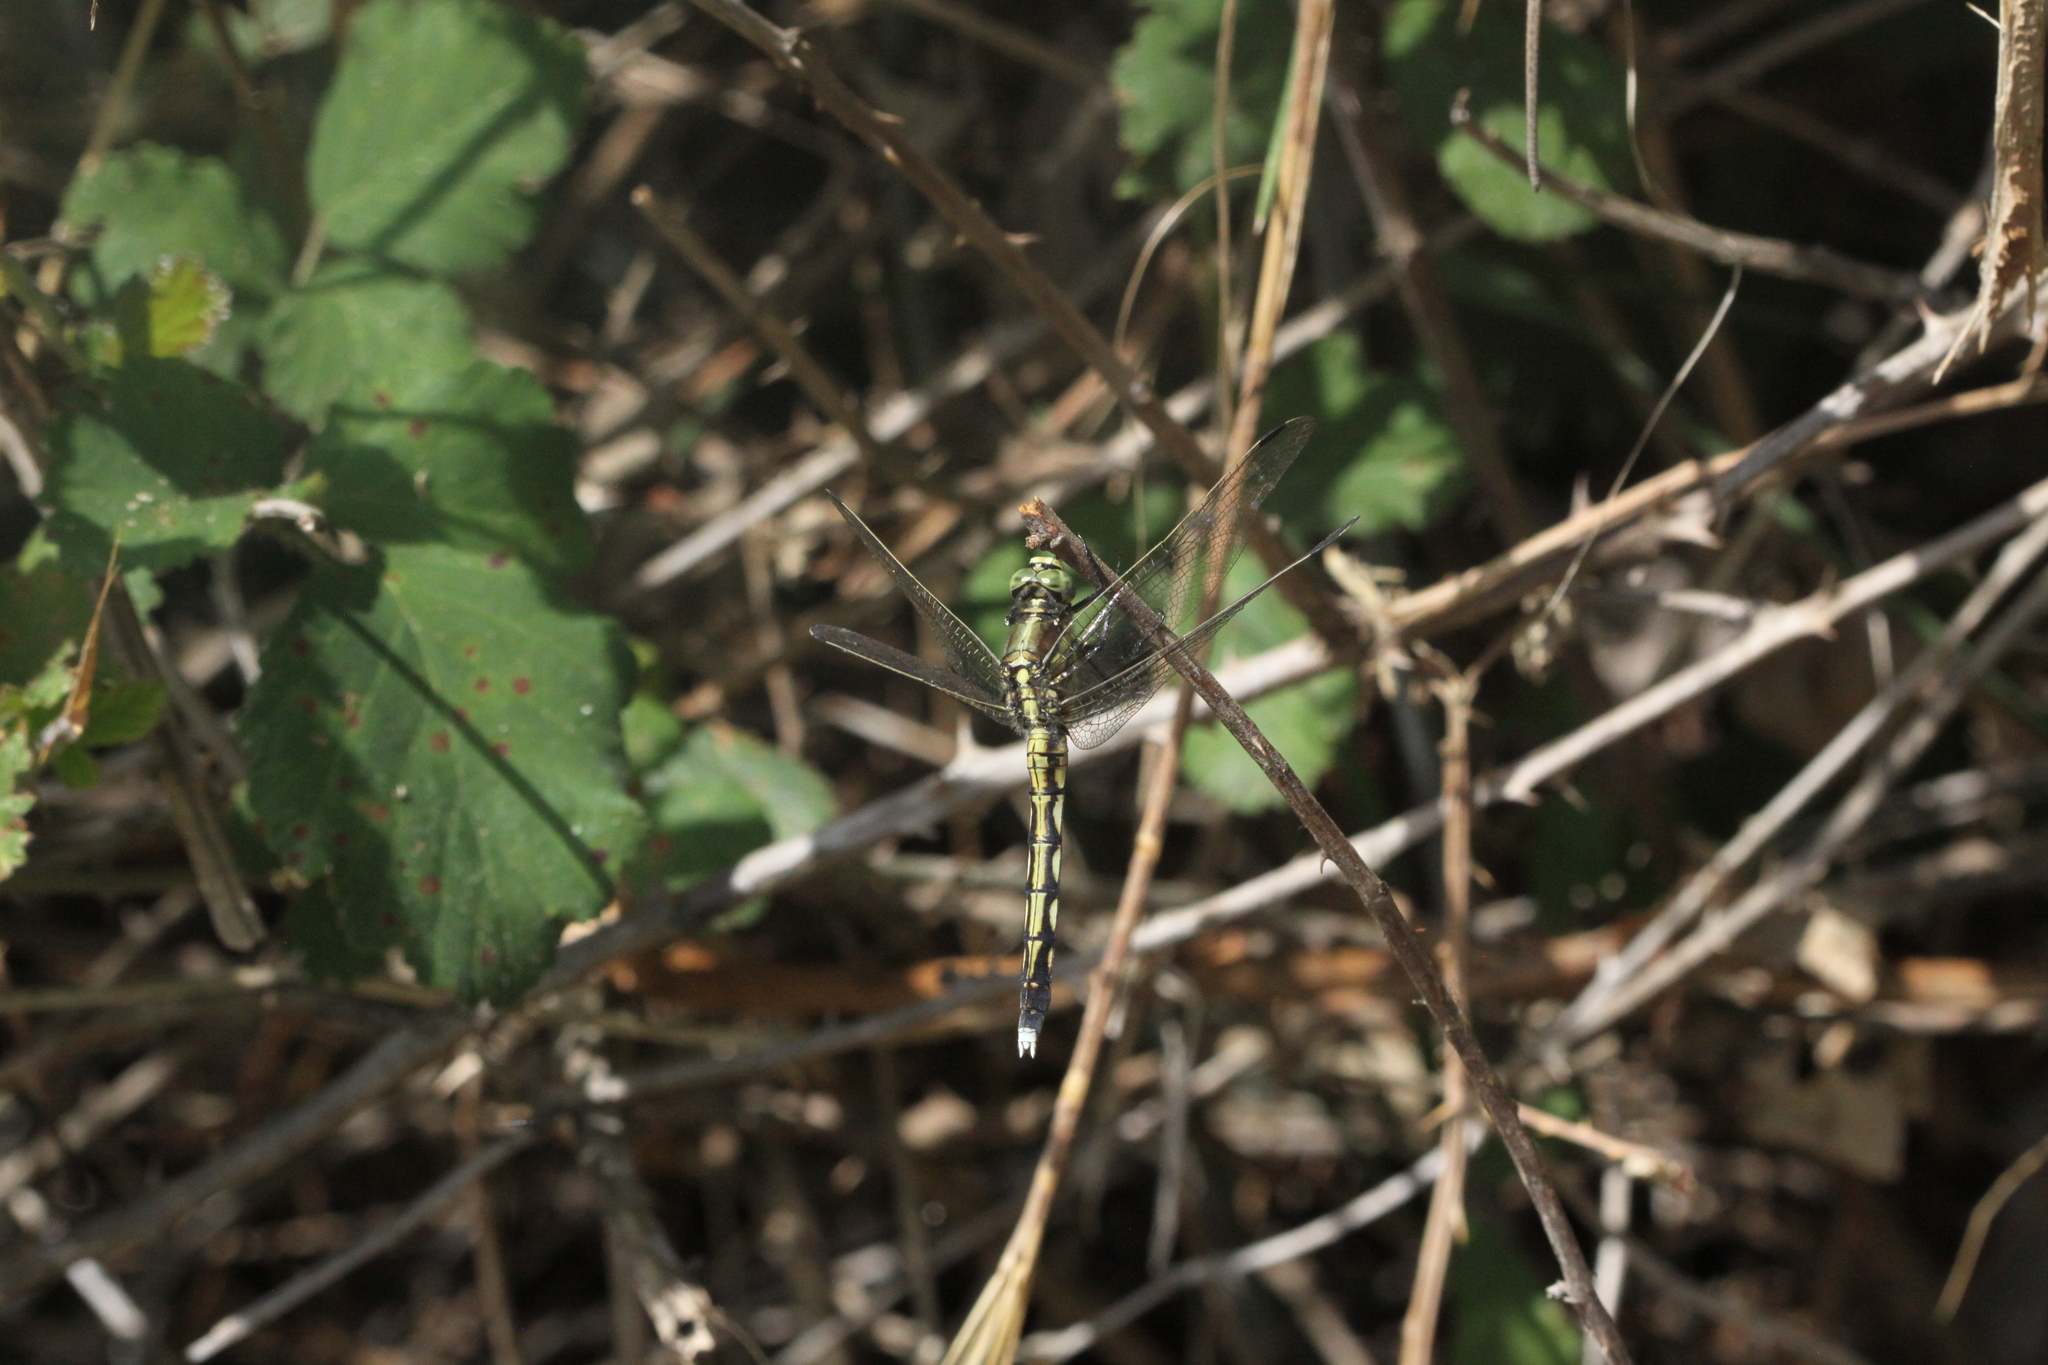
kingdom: Animalia
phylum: Arthropoda
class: Insecta
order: Odonata
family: Libellulidae
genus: Orthetrum
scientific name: Orthetrum albistylum
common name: White-tailed skimmer
